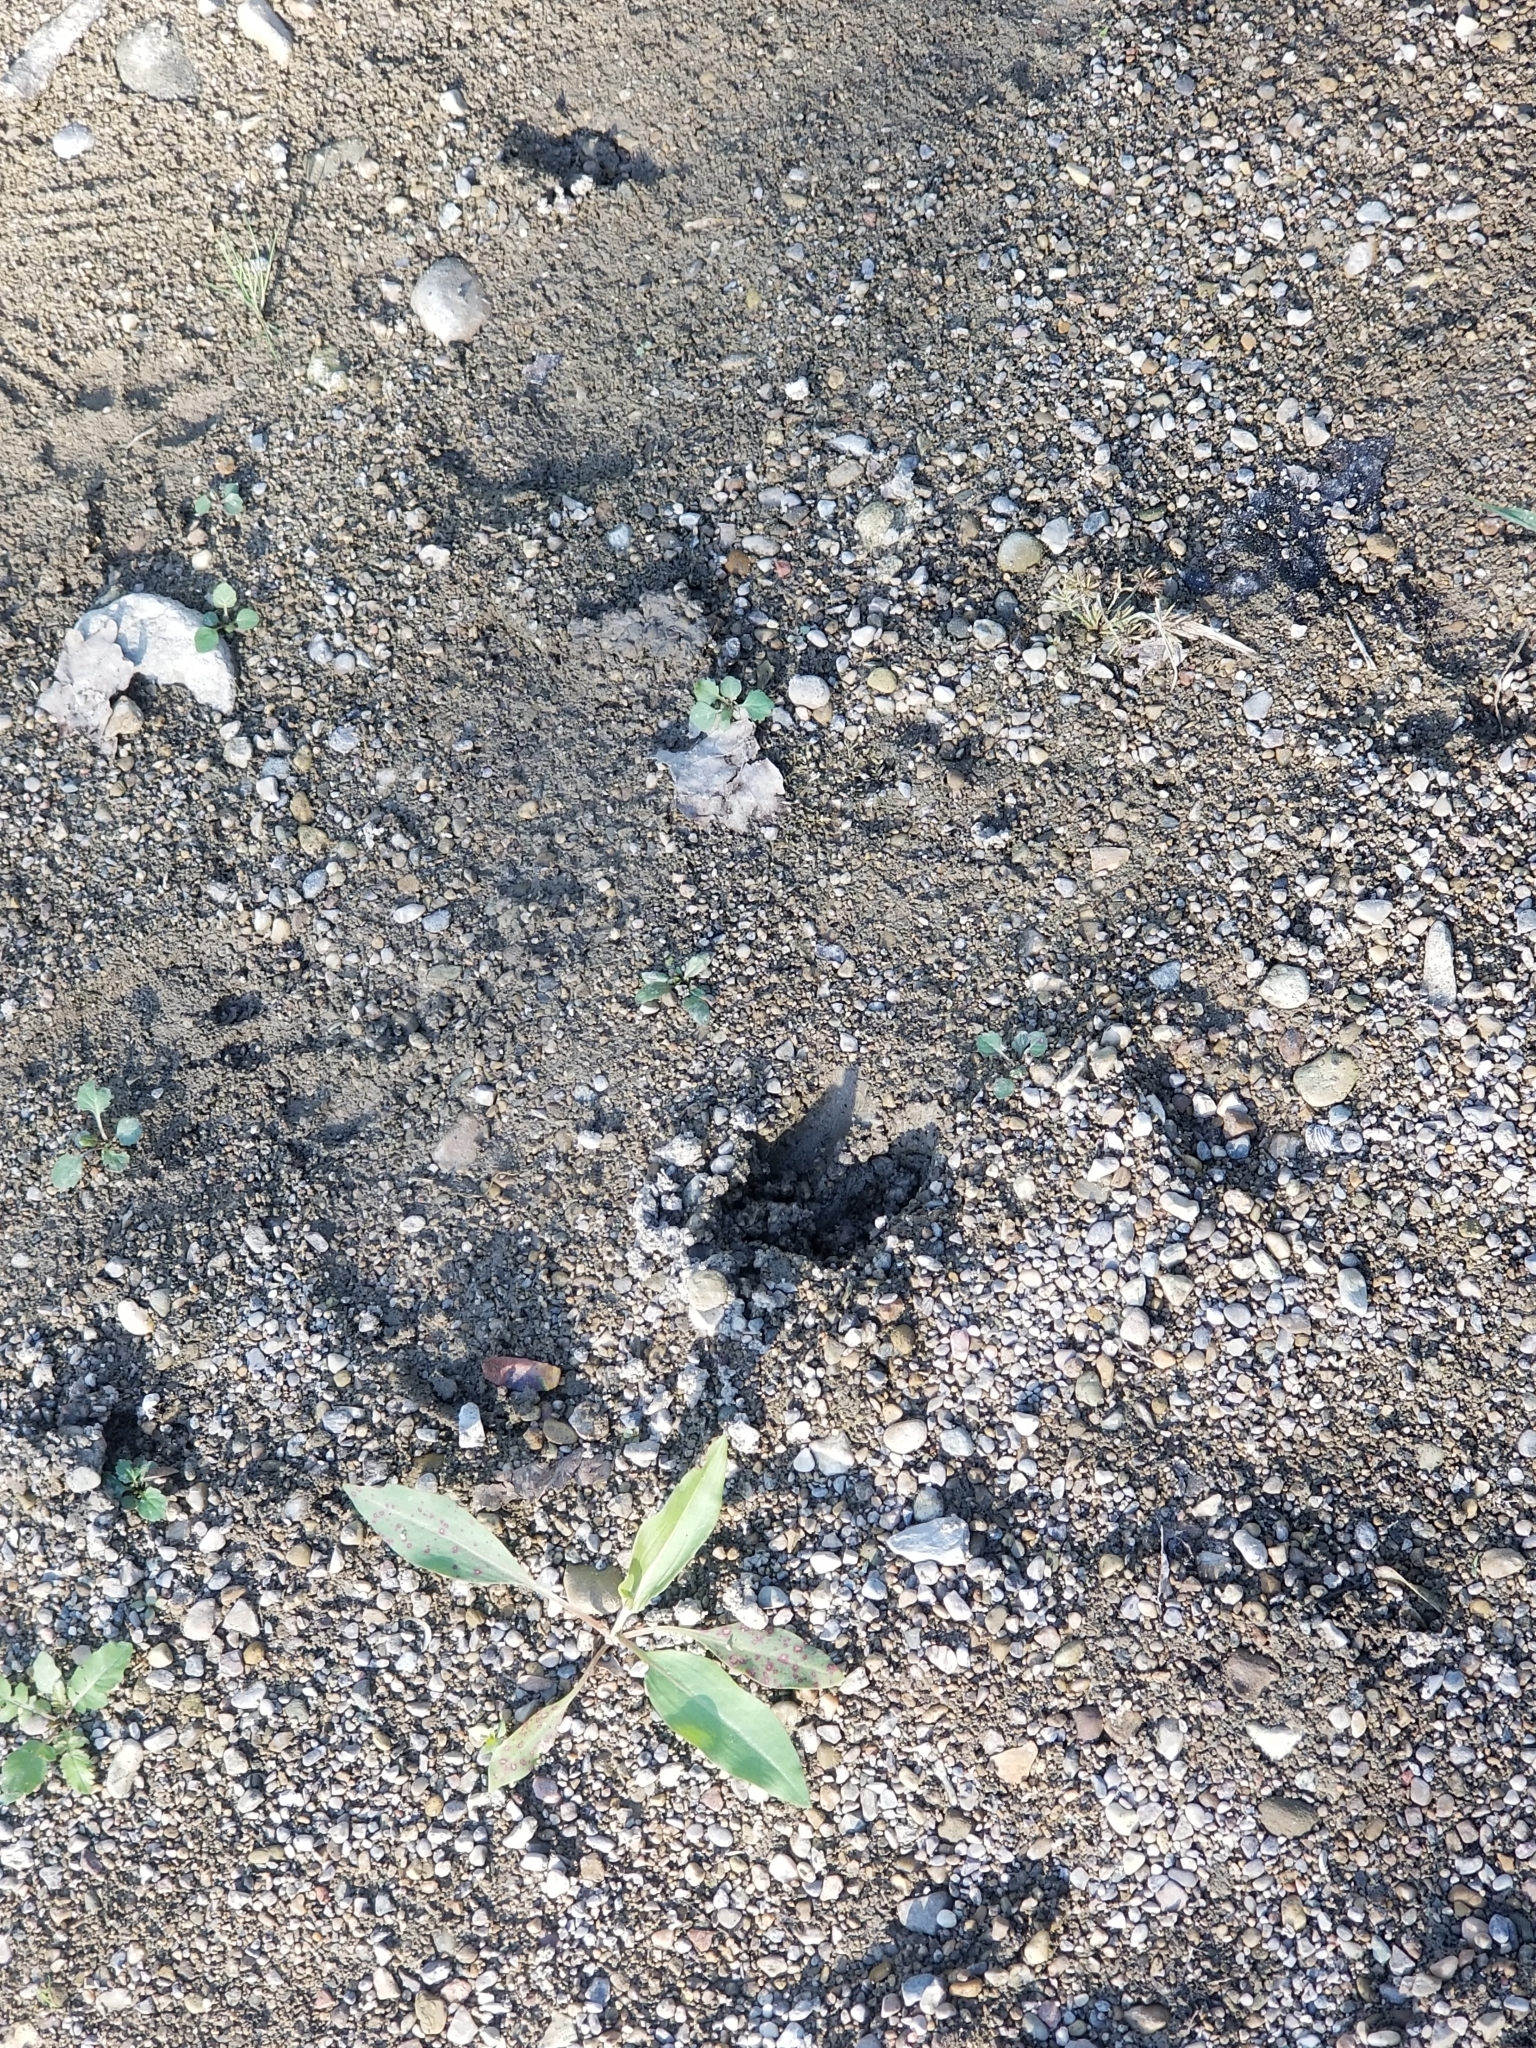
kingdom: Animalia
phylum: Chordata
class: Mammalia
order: Artiodactyla
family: Cervidae
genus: Odocoileus
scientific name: Odocoileus virginianus
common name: White-tailed deer
